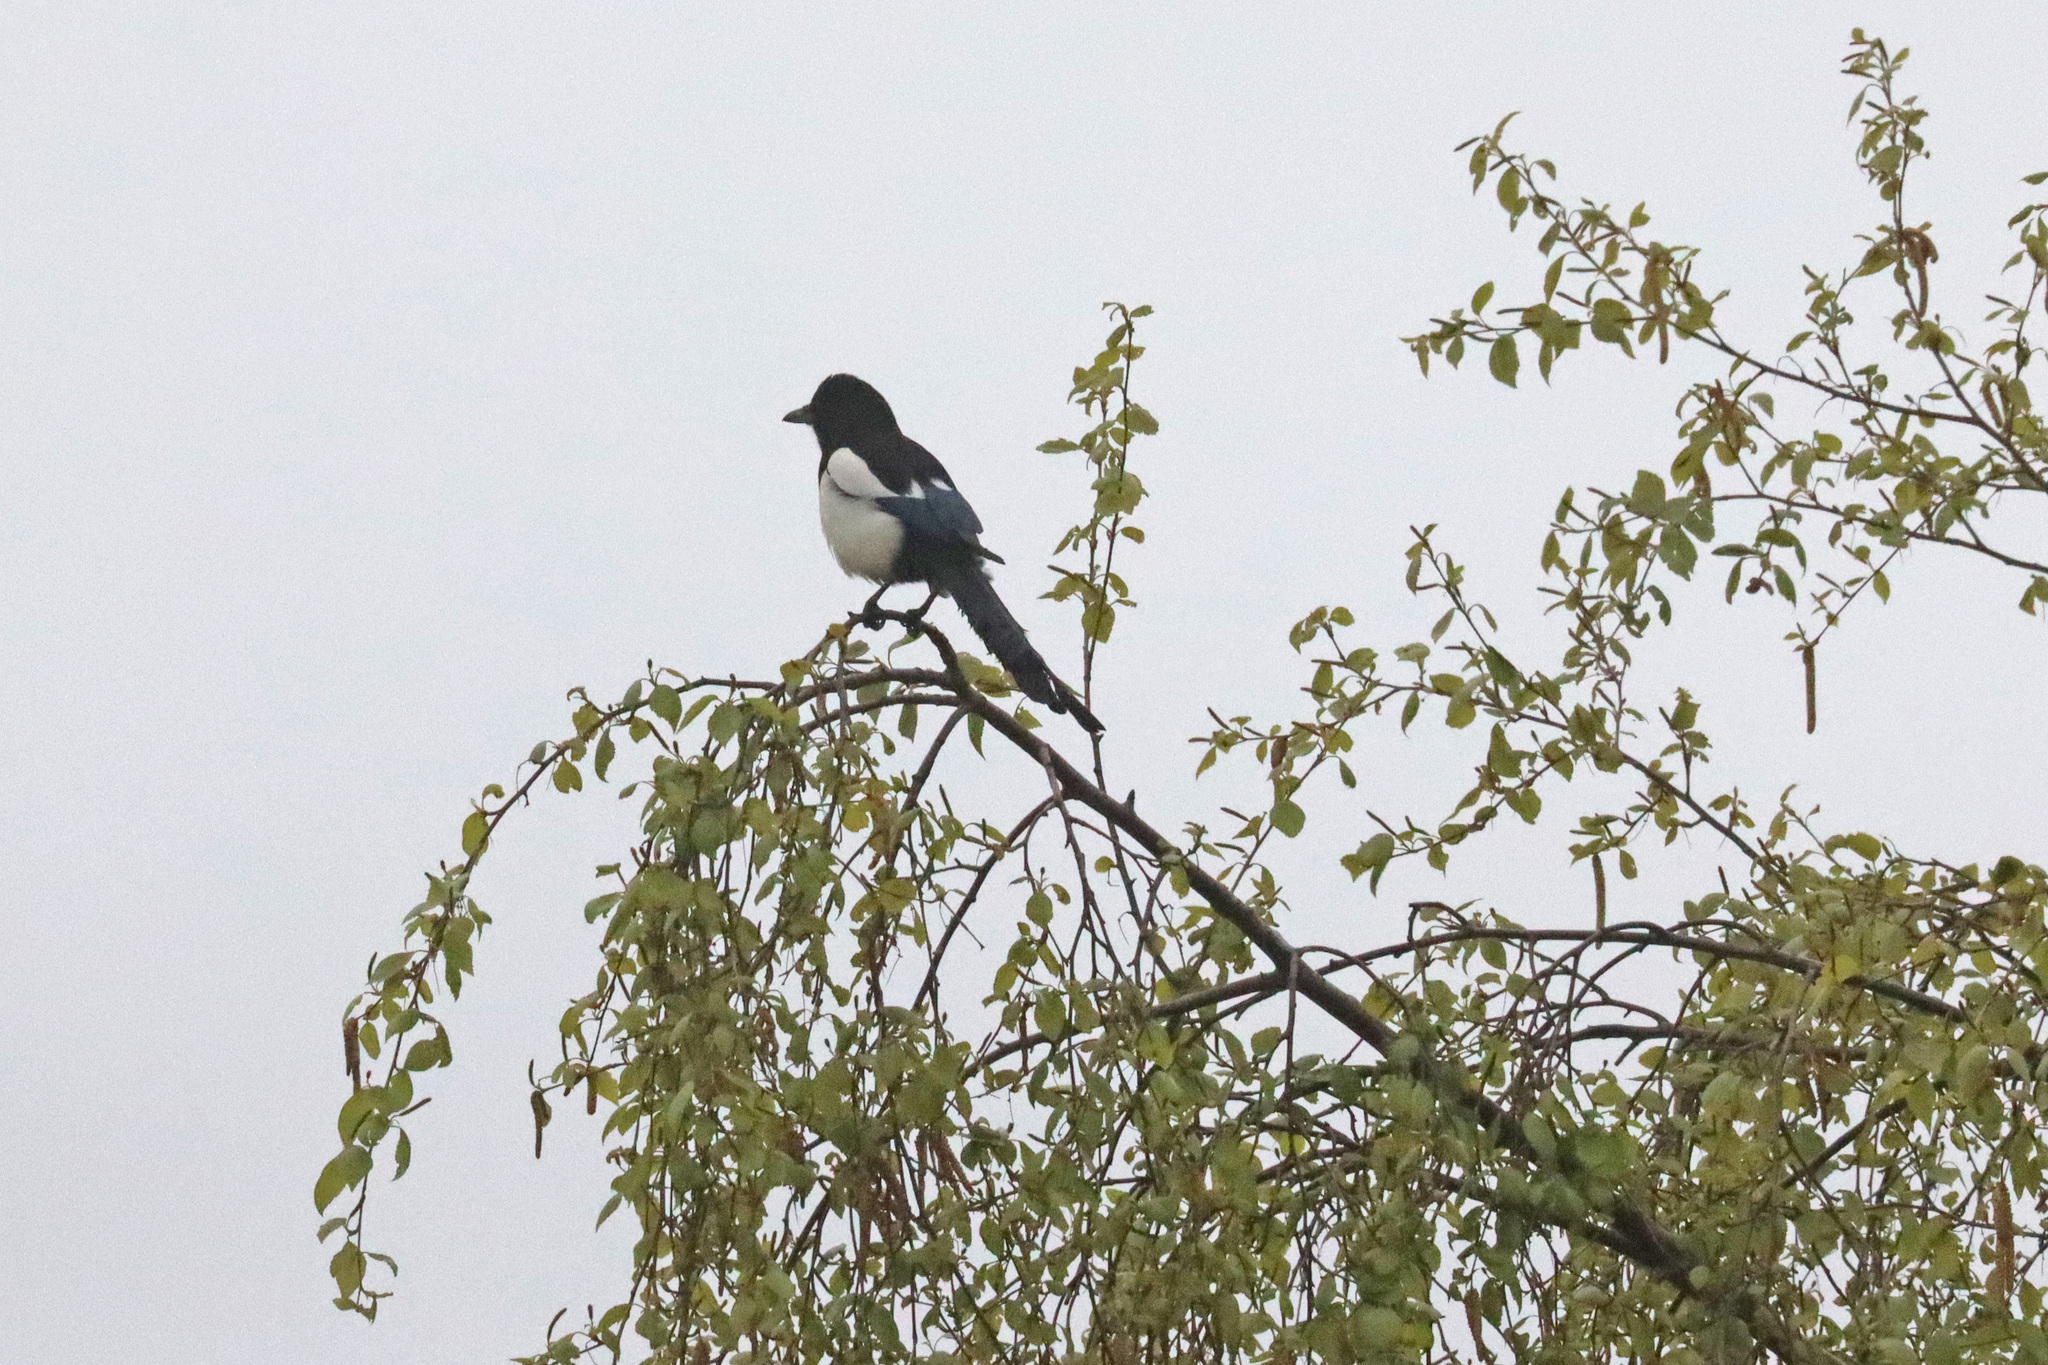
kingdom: Animalia
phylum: Chordata
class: Aves
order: Passeriformes
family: Corvidae
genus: Pica
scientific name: Pica pica
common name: Eurasian magpie
